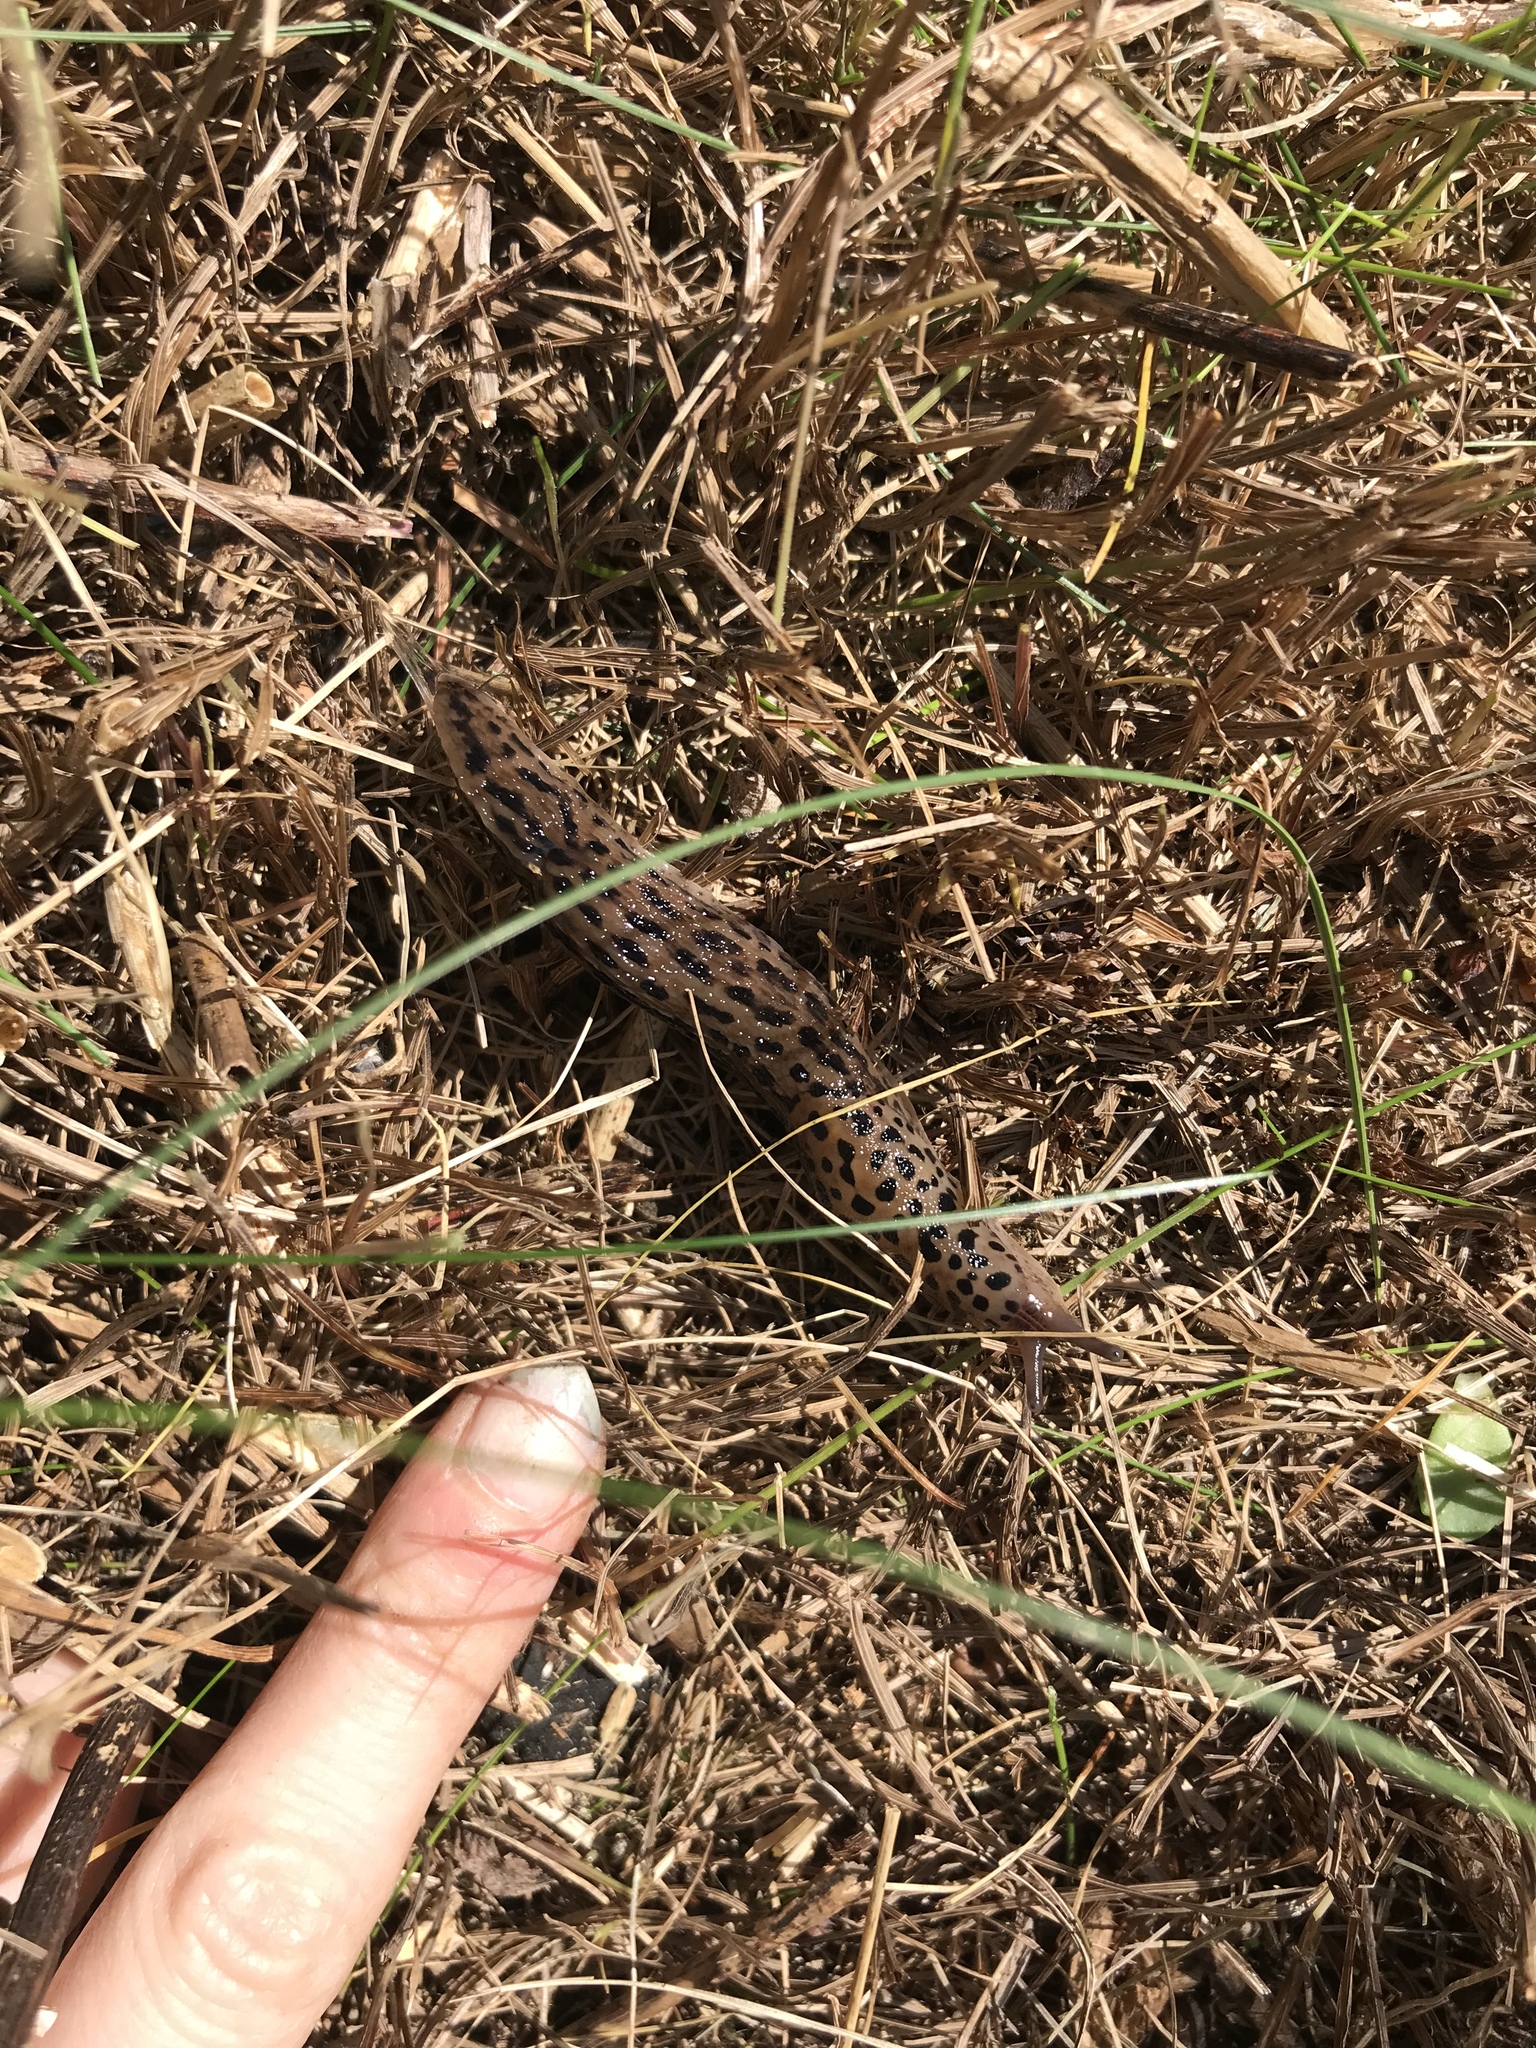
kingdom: Animalia
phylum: Mollusca
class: Gastropoda
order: Stylommatophora
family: Limacidae
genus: Limax
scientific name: Limax maximus
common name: Great grey slug
